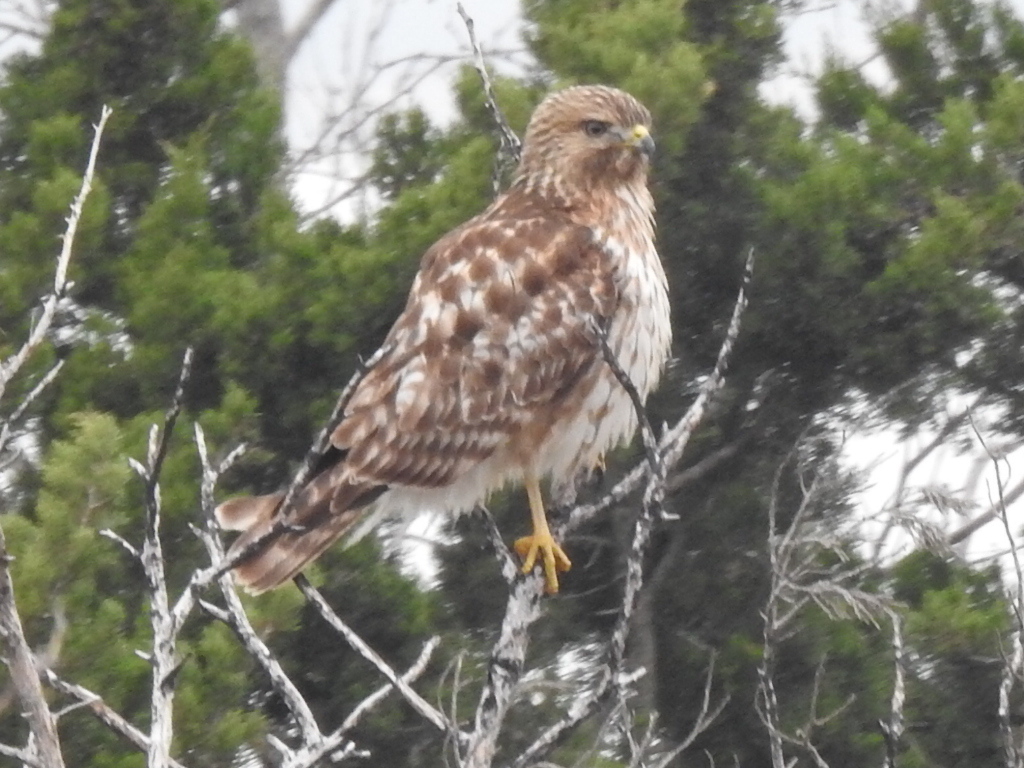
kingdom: Animalia
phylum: Chordata
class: Aves
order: Accipitriformes
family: Accipitridae
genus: Buteo
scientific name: Buteo lineatus
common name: Red-shouldered hawk
